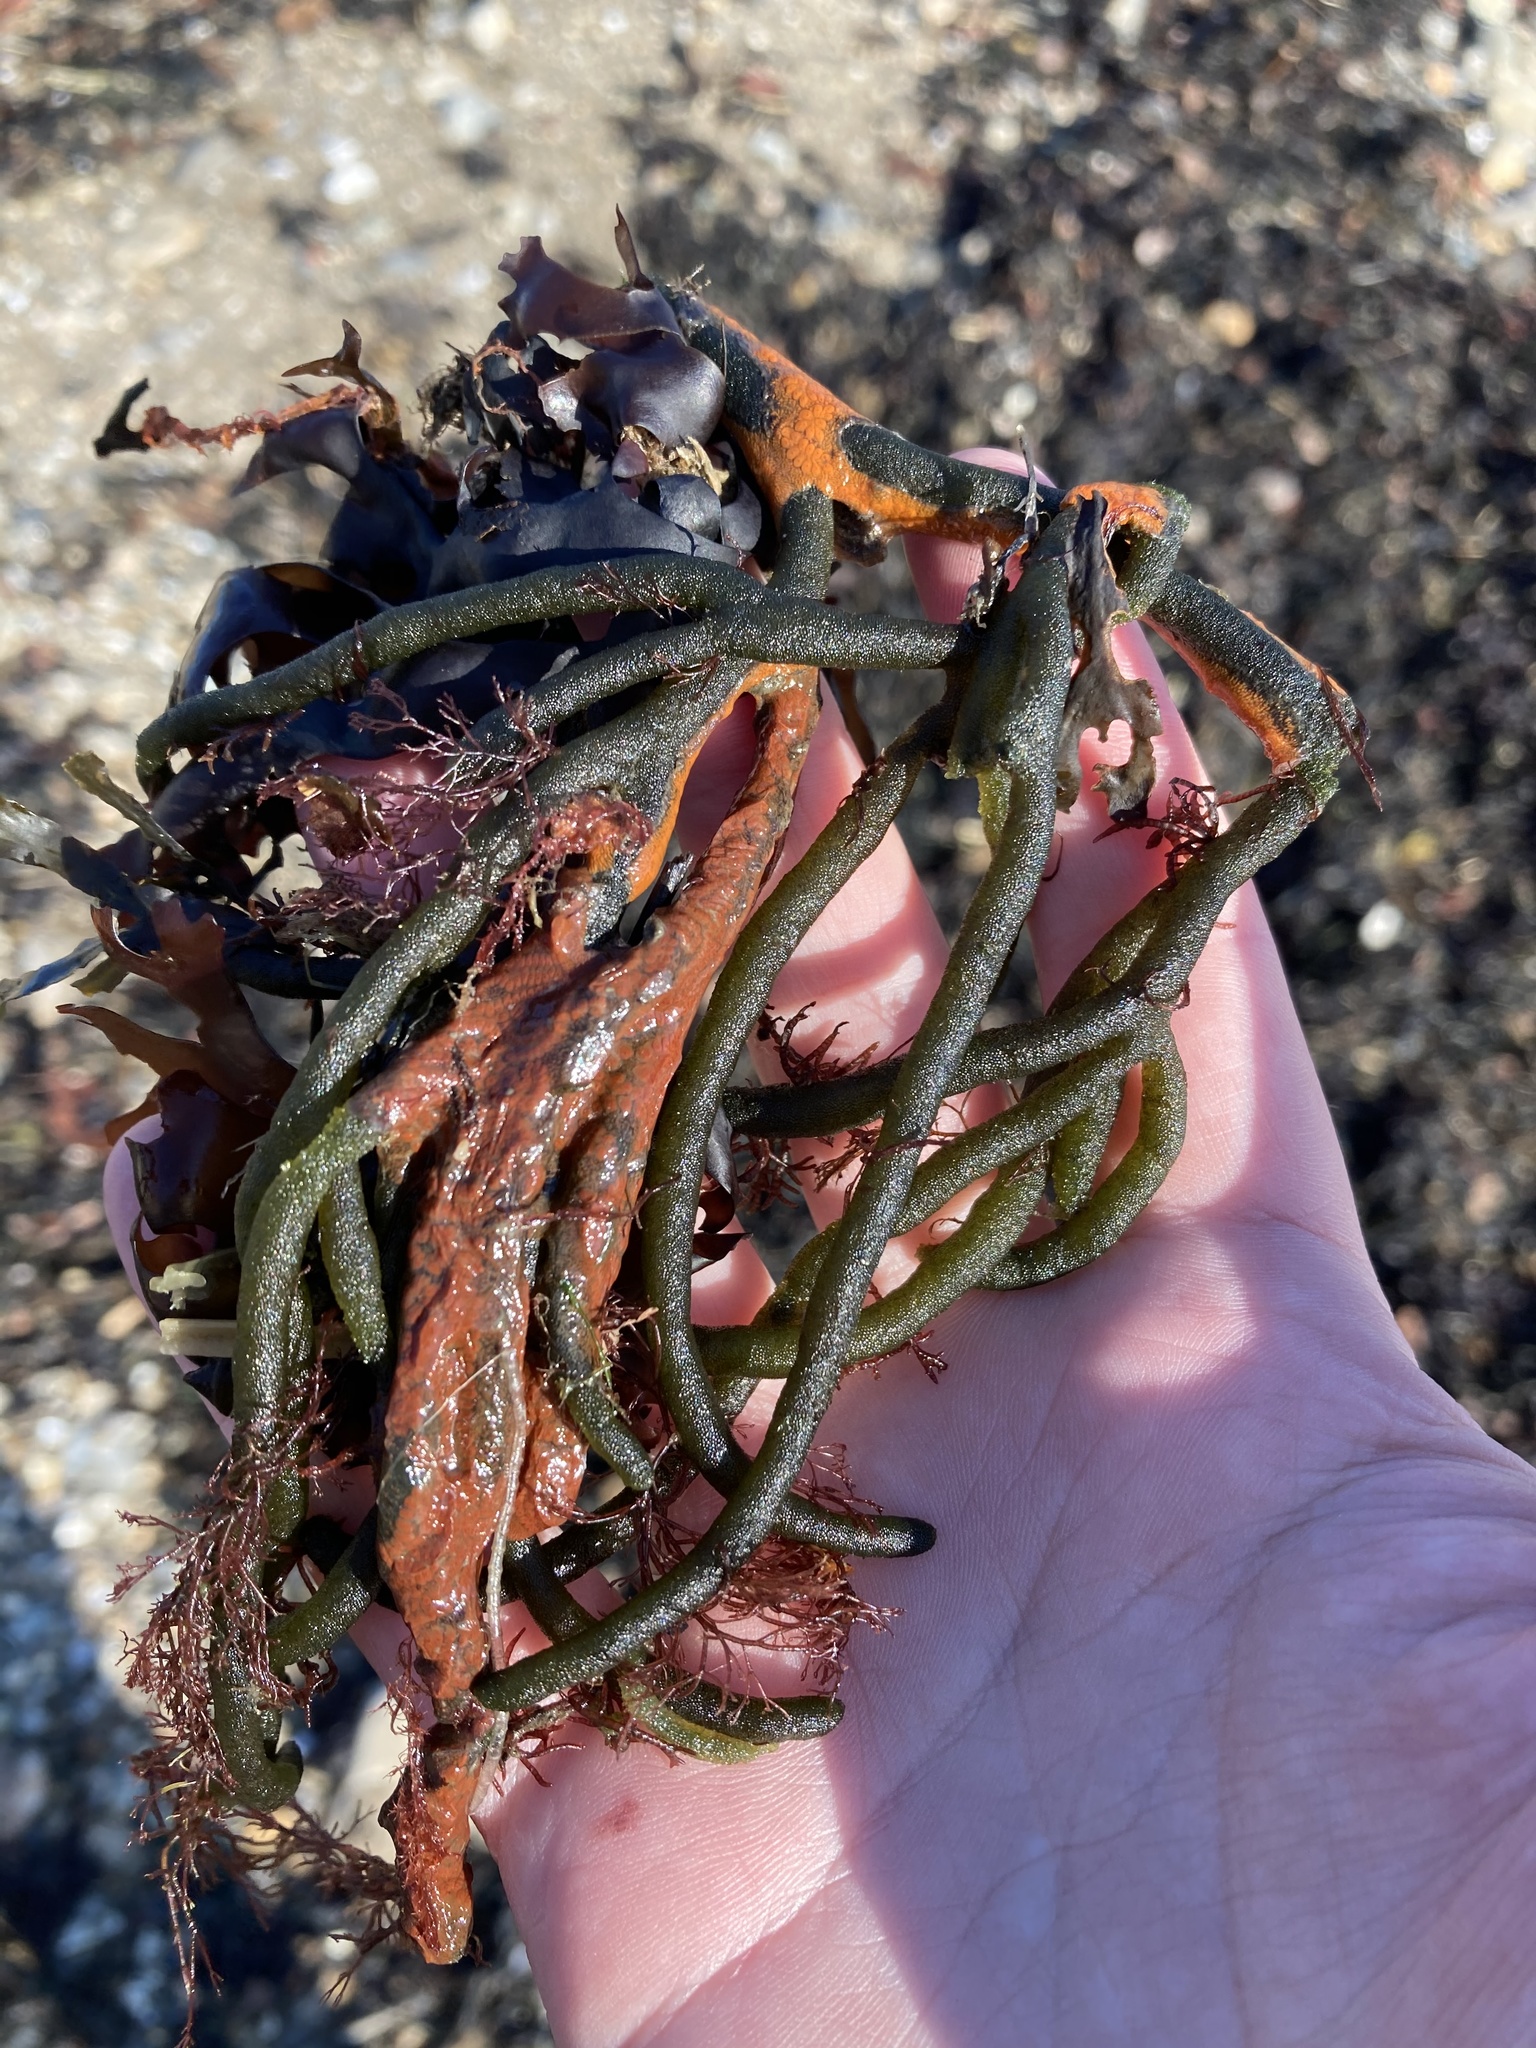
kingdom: Plantae
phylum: Chlorophyta
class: Ulvophyceae
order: Bryopsidales
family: Codiaceae
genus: Codium
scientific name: Codium fragile
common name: Dead man's fingers
